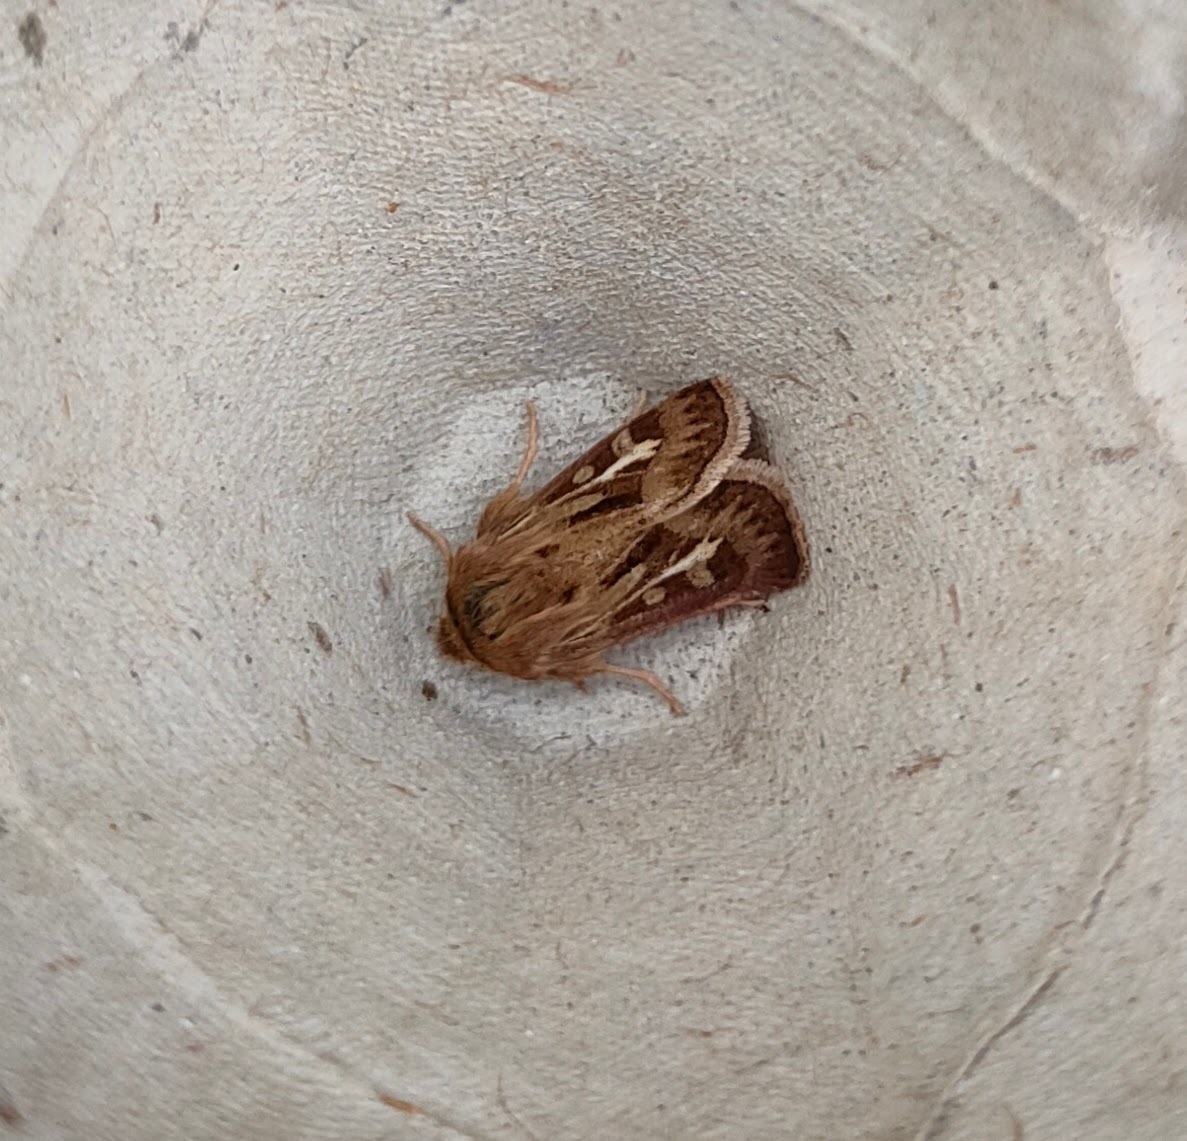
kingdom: Animalia
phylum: Arthropoda
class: Insecta
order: Lepidoptera
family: Noctuidae
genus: Cerapteryx
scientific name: Cerapteryx graminis
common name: Antler moth
